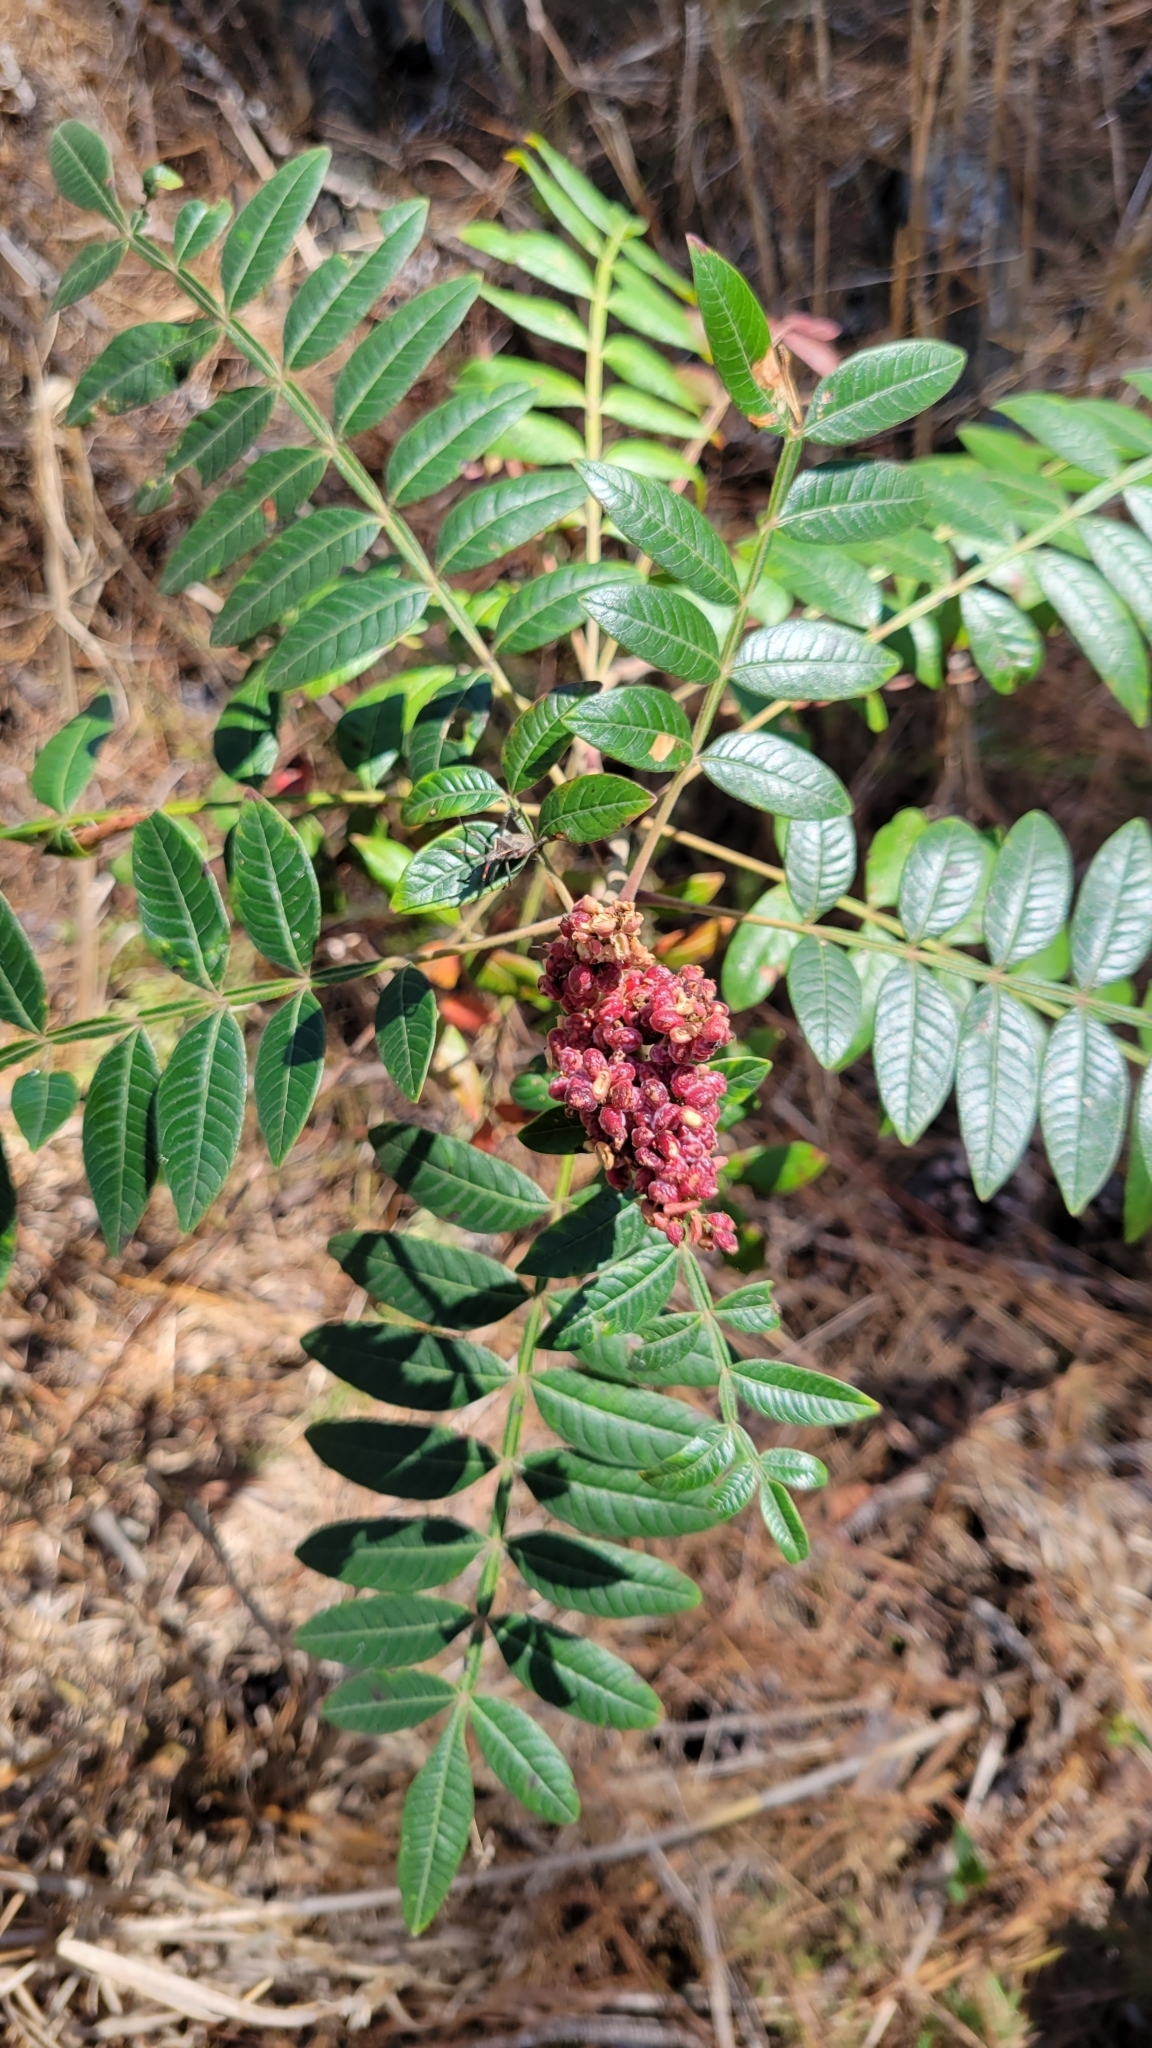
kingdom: Plantae
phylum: Tracheophyta
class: Magnoliopsida
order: Sapindales
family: Anacardiaceae
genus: Rhus
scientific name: Rhus copallina
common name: Shining sumac
